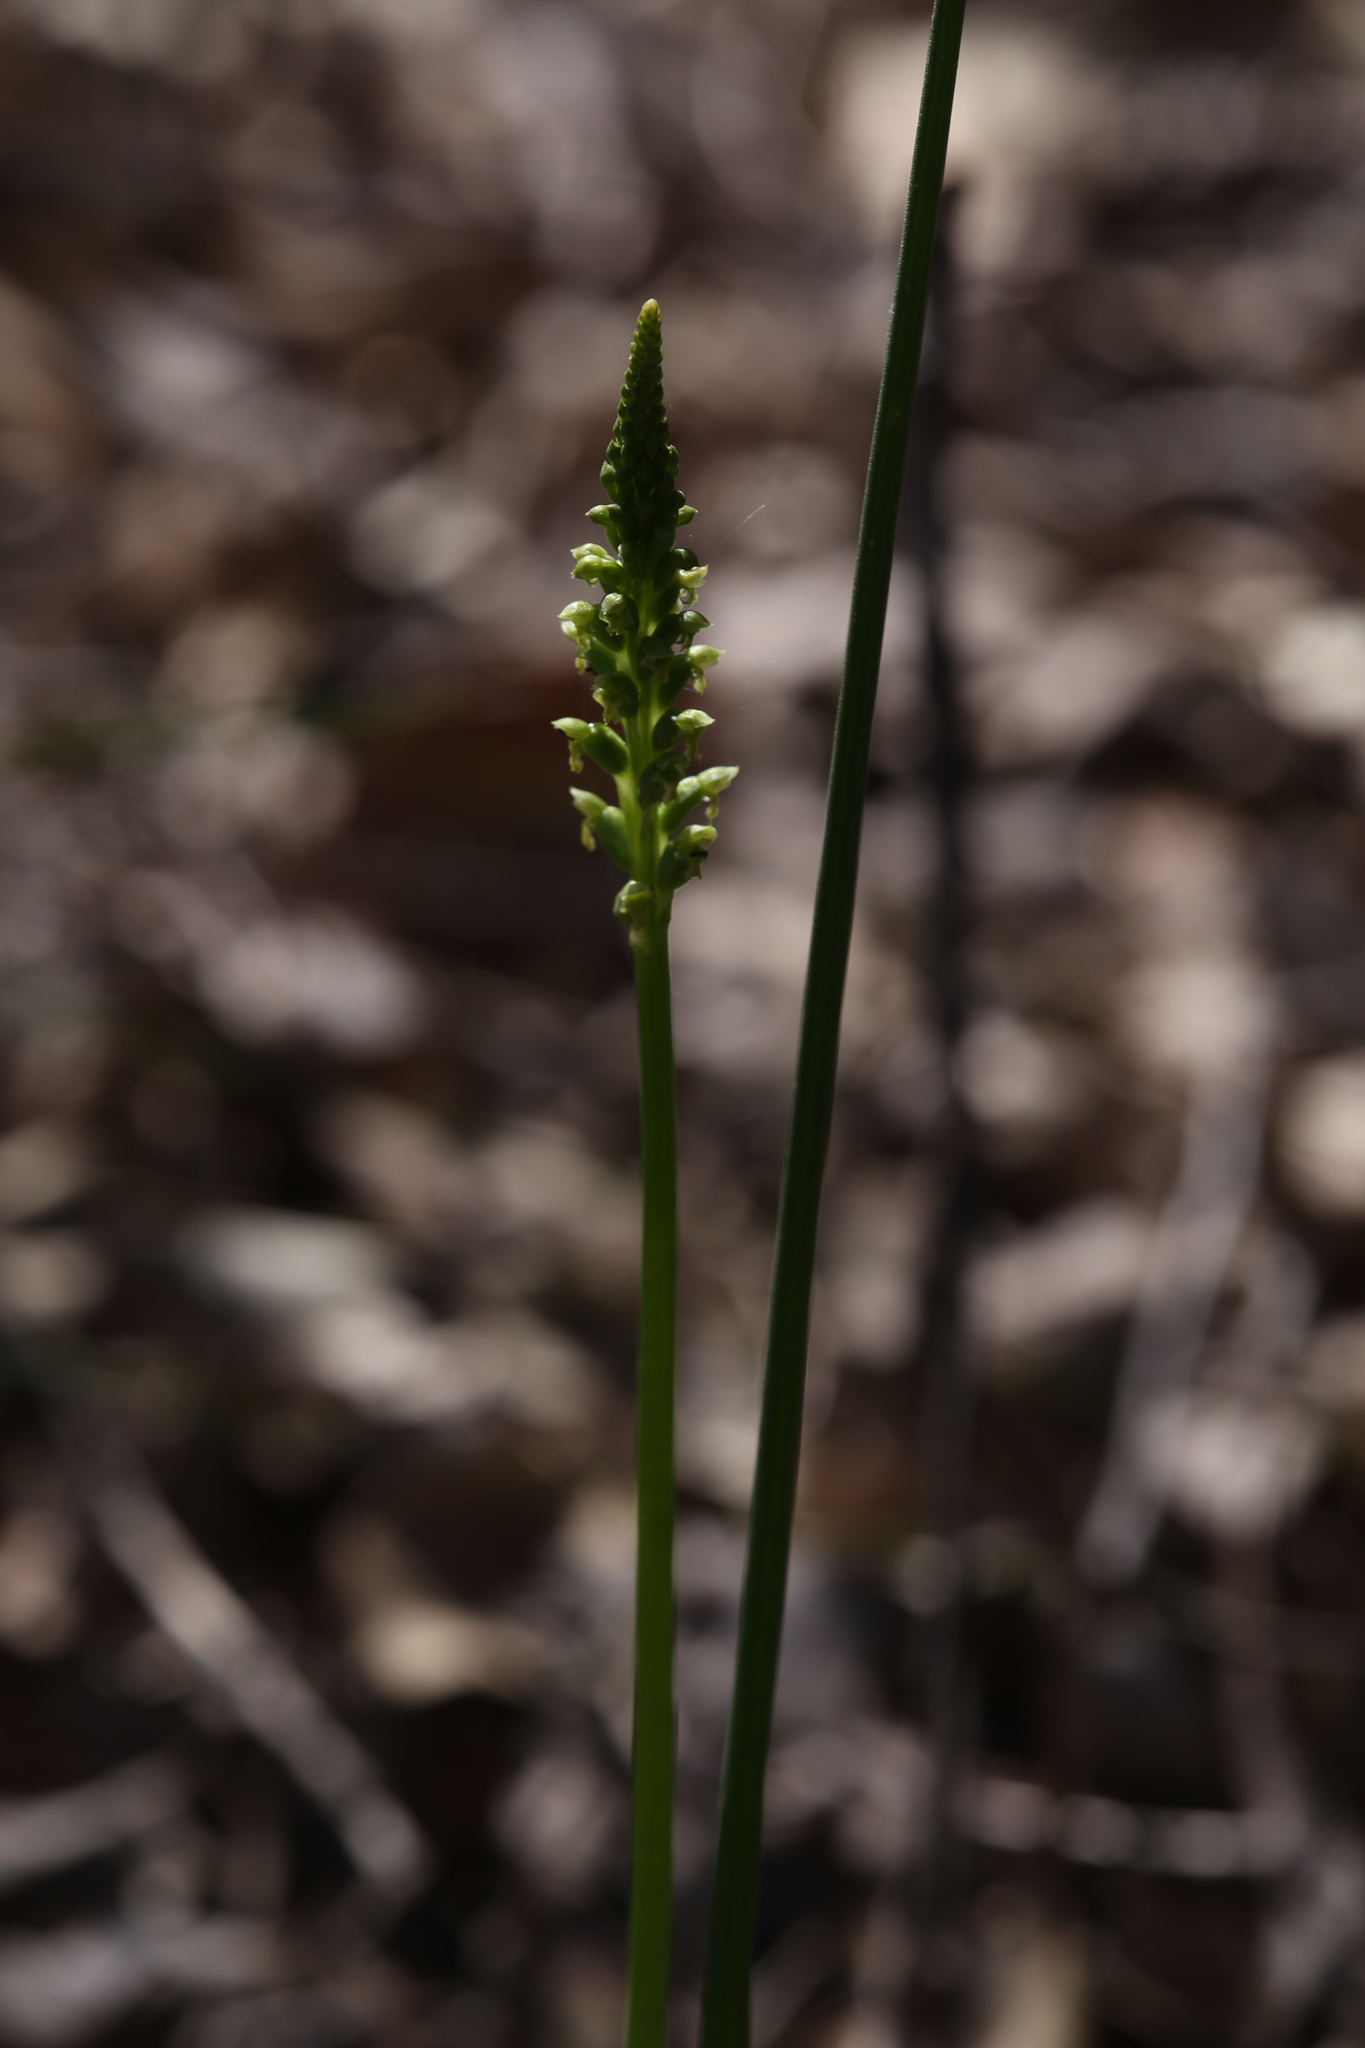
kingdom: Plantae
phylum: Tracheophyta
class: Liliopsida
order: Asparagales
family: Orchidaceae
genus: Microtis
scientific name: Microtis media
